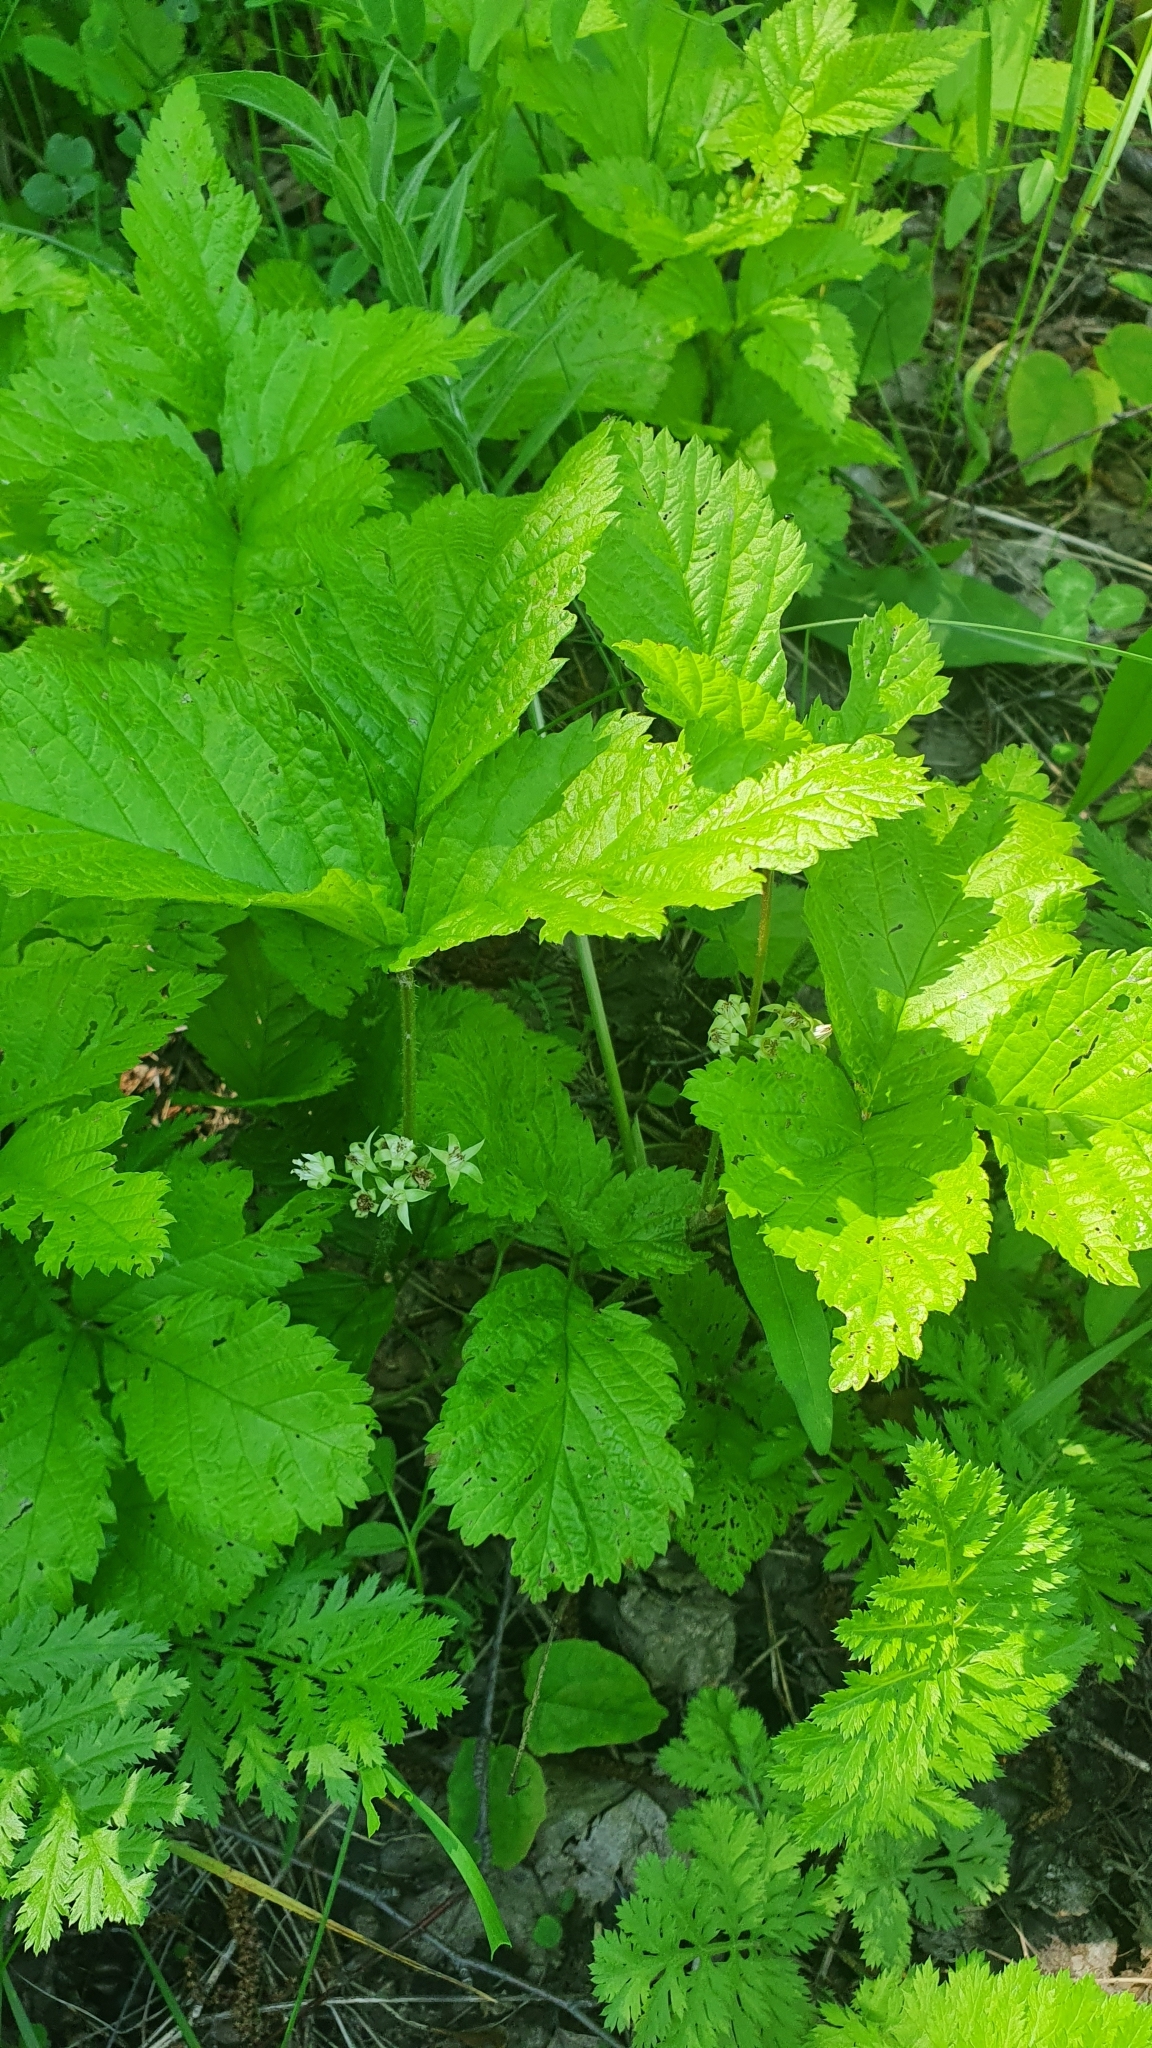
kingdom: Plantae
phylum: Tracheophyta
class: Magnoliopsida
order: Rosales
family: Rosaceae
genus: Rubus
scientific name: Rubus saxatilis
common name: Stone bramble
